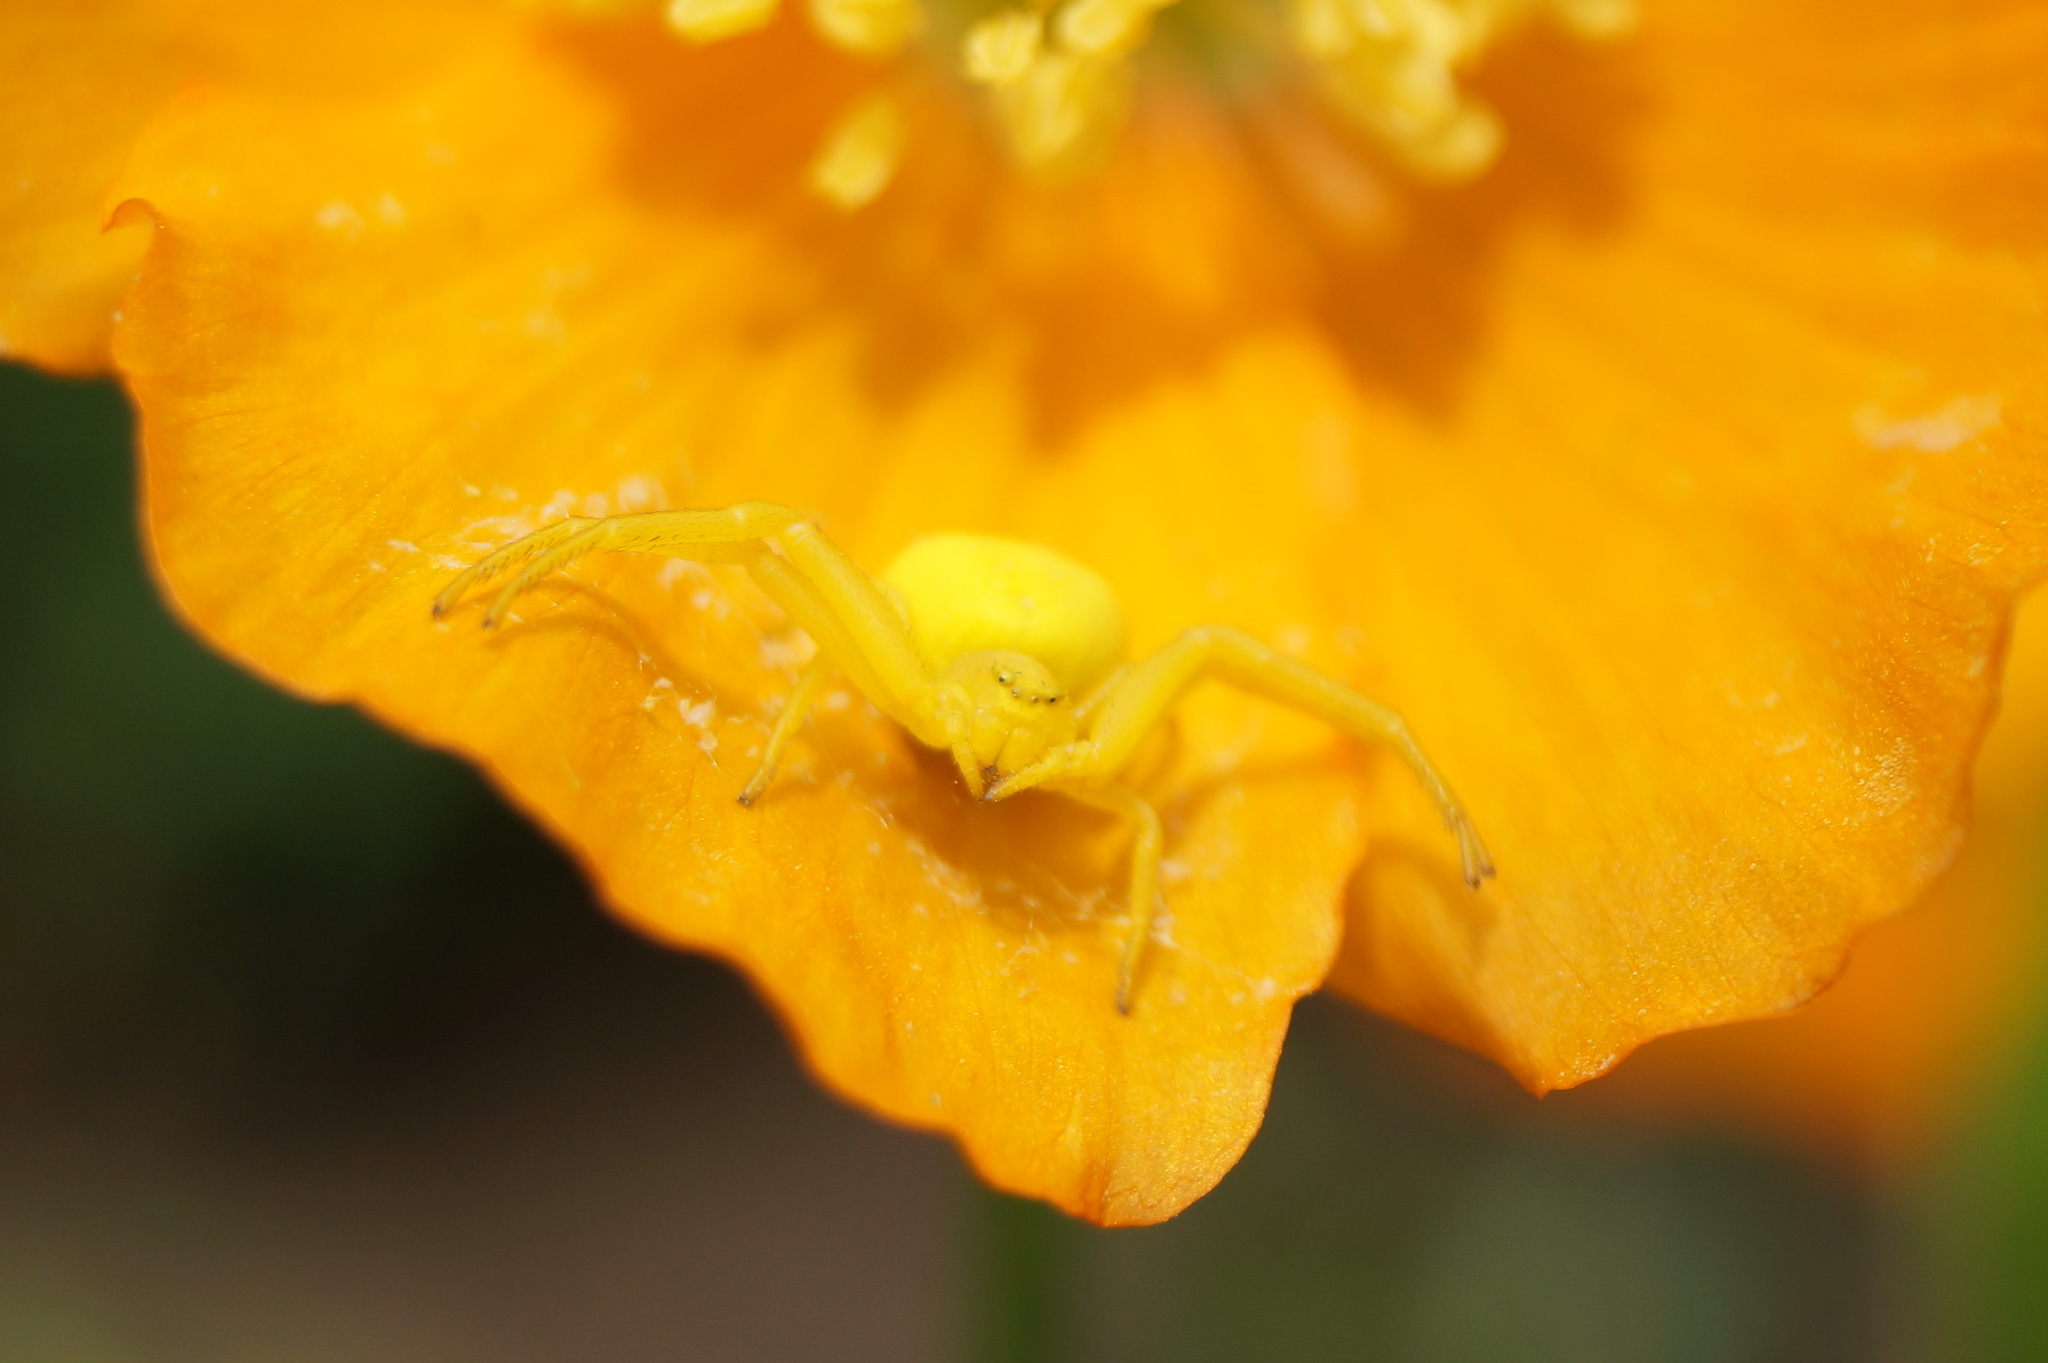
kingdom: Animalia
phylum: Arthropoda
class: Arachnida
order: Araneae
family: Thomisidae
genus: Misumena
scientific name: Misumena vatia
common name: Goldenrod crab spider
